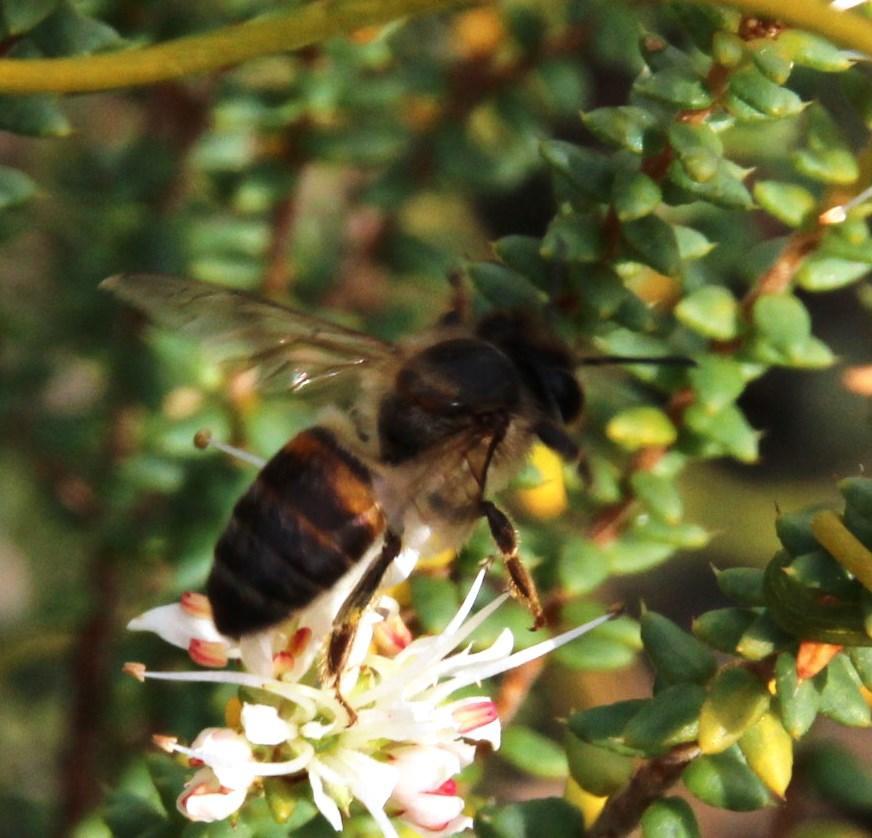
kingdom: Animalia
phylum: Arthropoda
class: Insecta
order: Hymenoptera
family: Apidae
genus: Apis
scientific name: Apis mellifera
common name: Honey bee
